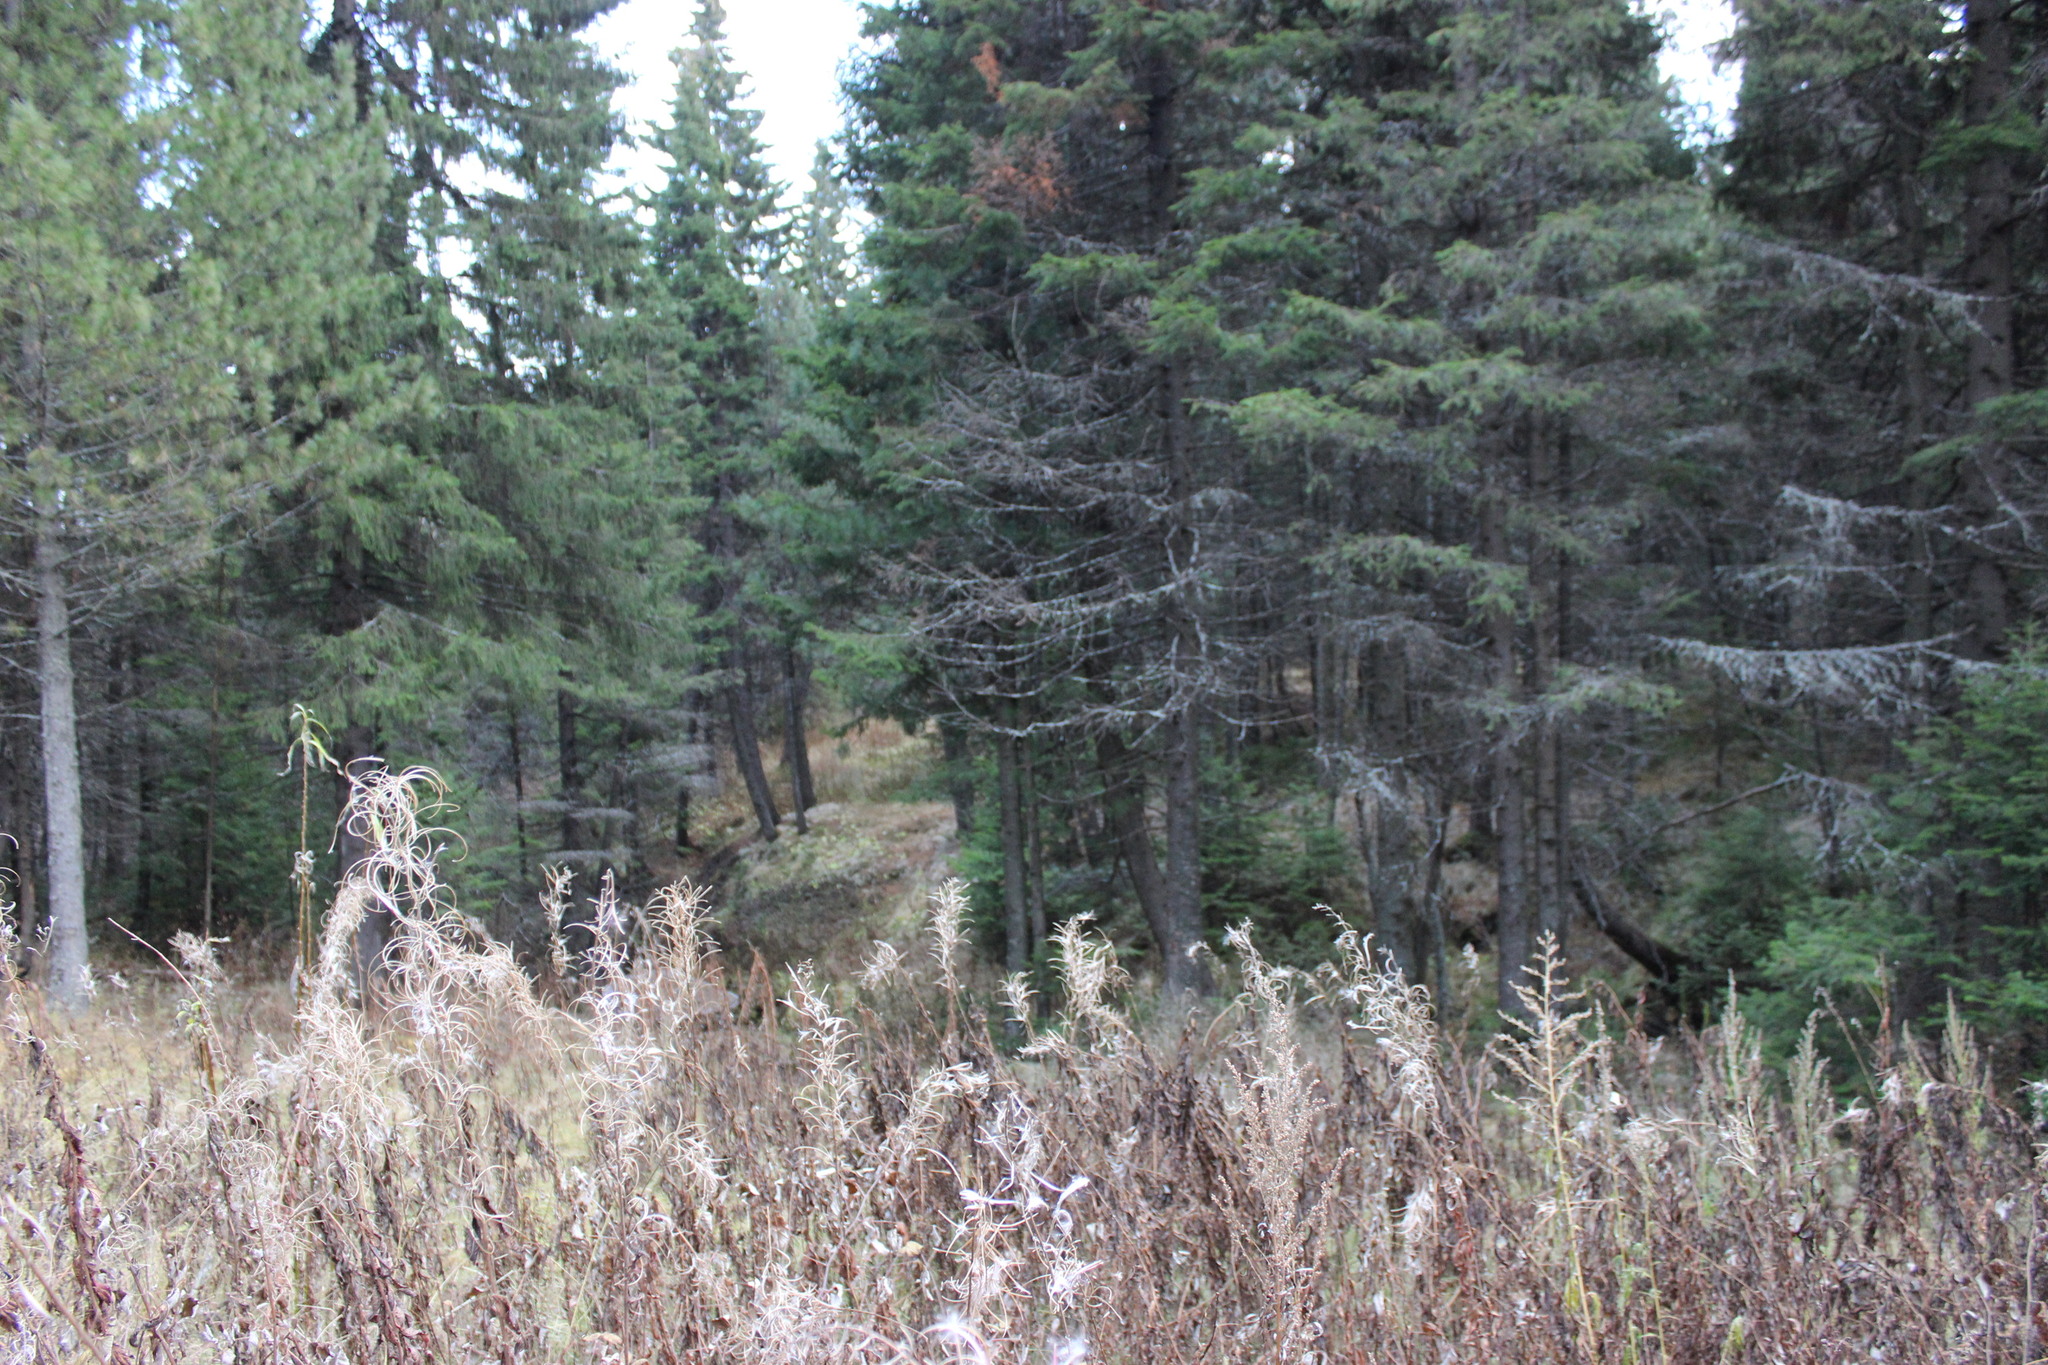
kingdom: Plantae
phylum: Tracheophyta
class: Magnoliopsida
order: Myrtales
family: Onagraceae
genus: Chamaenerion
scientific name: Chamaenerion angustifolium
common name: Fireweed
